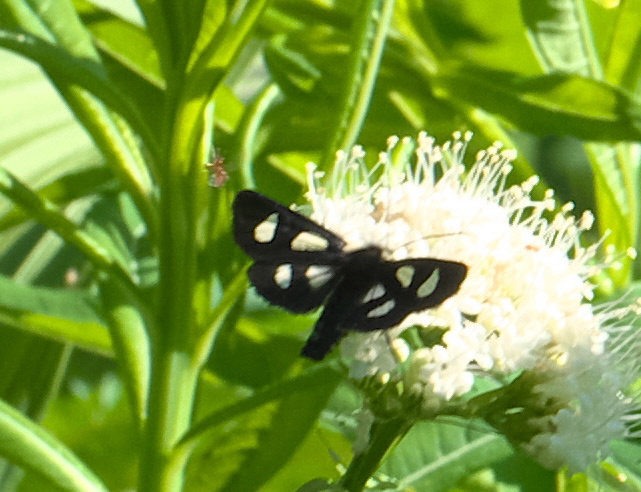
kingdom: Animalia
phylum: Arthropoda
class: Insecta
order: Lepidoptera
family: Noctuidae
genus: Alypia
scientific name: Alypia langtonii
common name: Fireweed caterpillar
